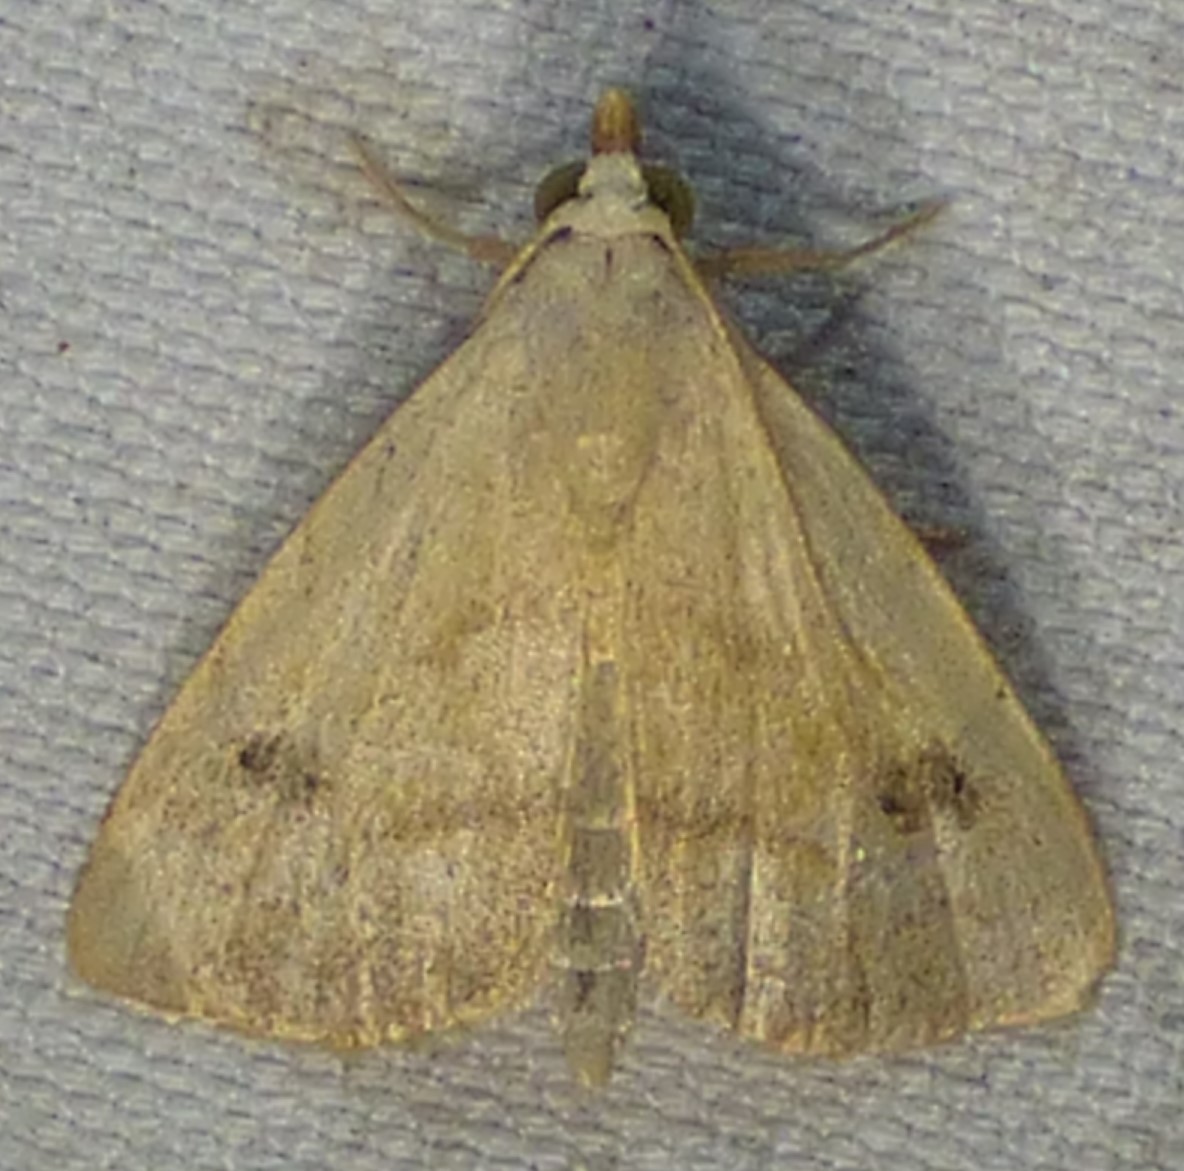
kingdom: Animalia
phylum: Arthropoda
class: Insecta
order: Lepidoptera
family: Erebidae
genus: Rivula
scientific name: Rivula propinqualis
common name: Spotted grass moth
